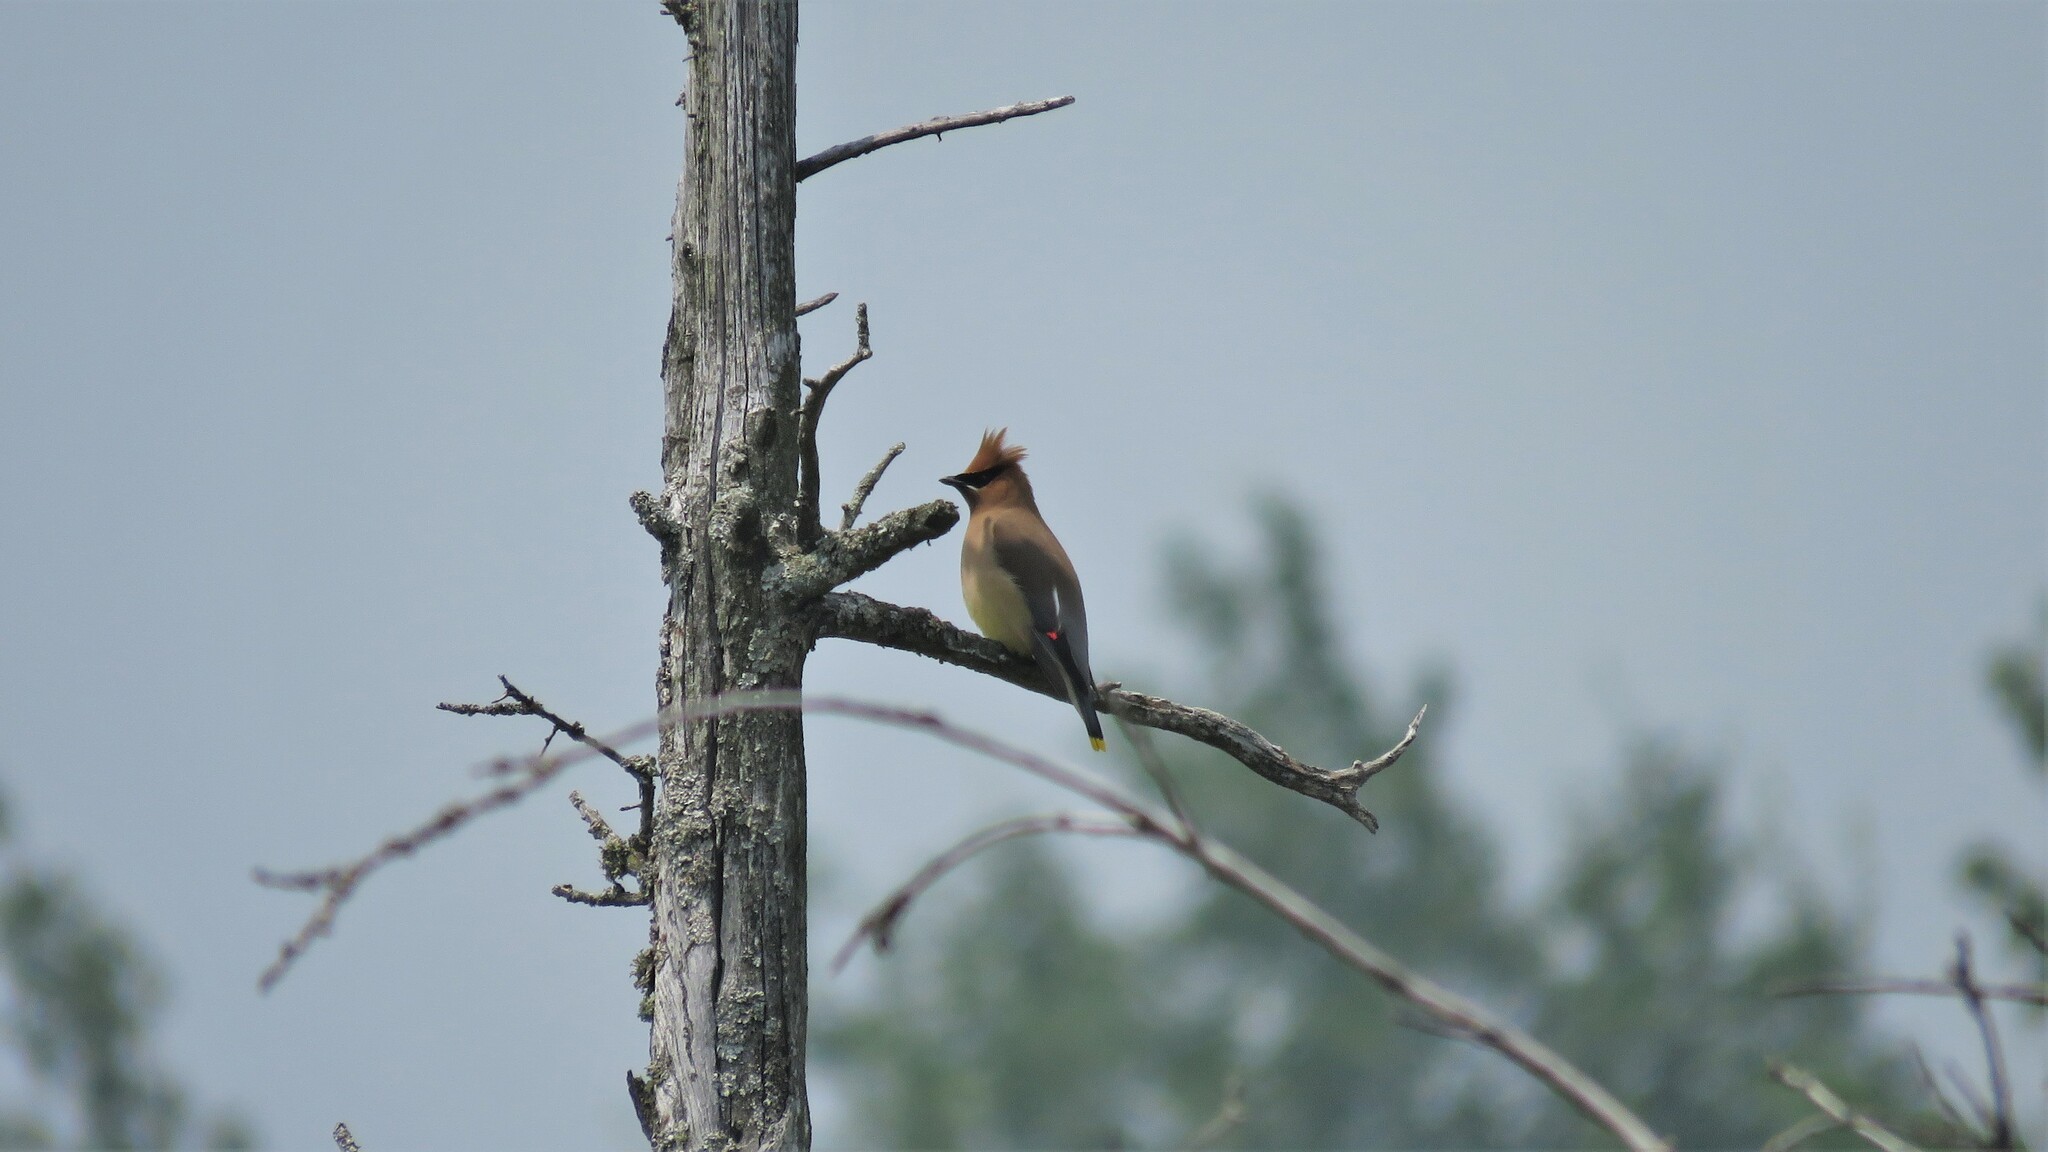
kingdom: Animalia
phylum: Chordata
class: Aves
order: Passeriformes
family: Bombycillidae
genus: Bombycilla
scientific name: Bombycilla cedrorum
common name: Cedar waxwing
